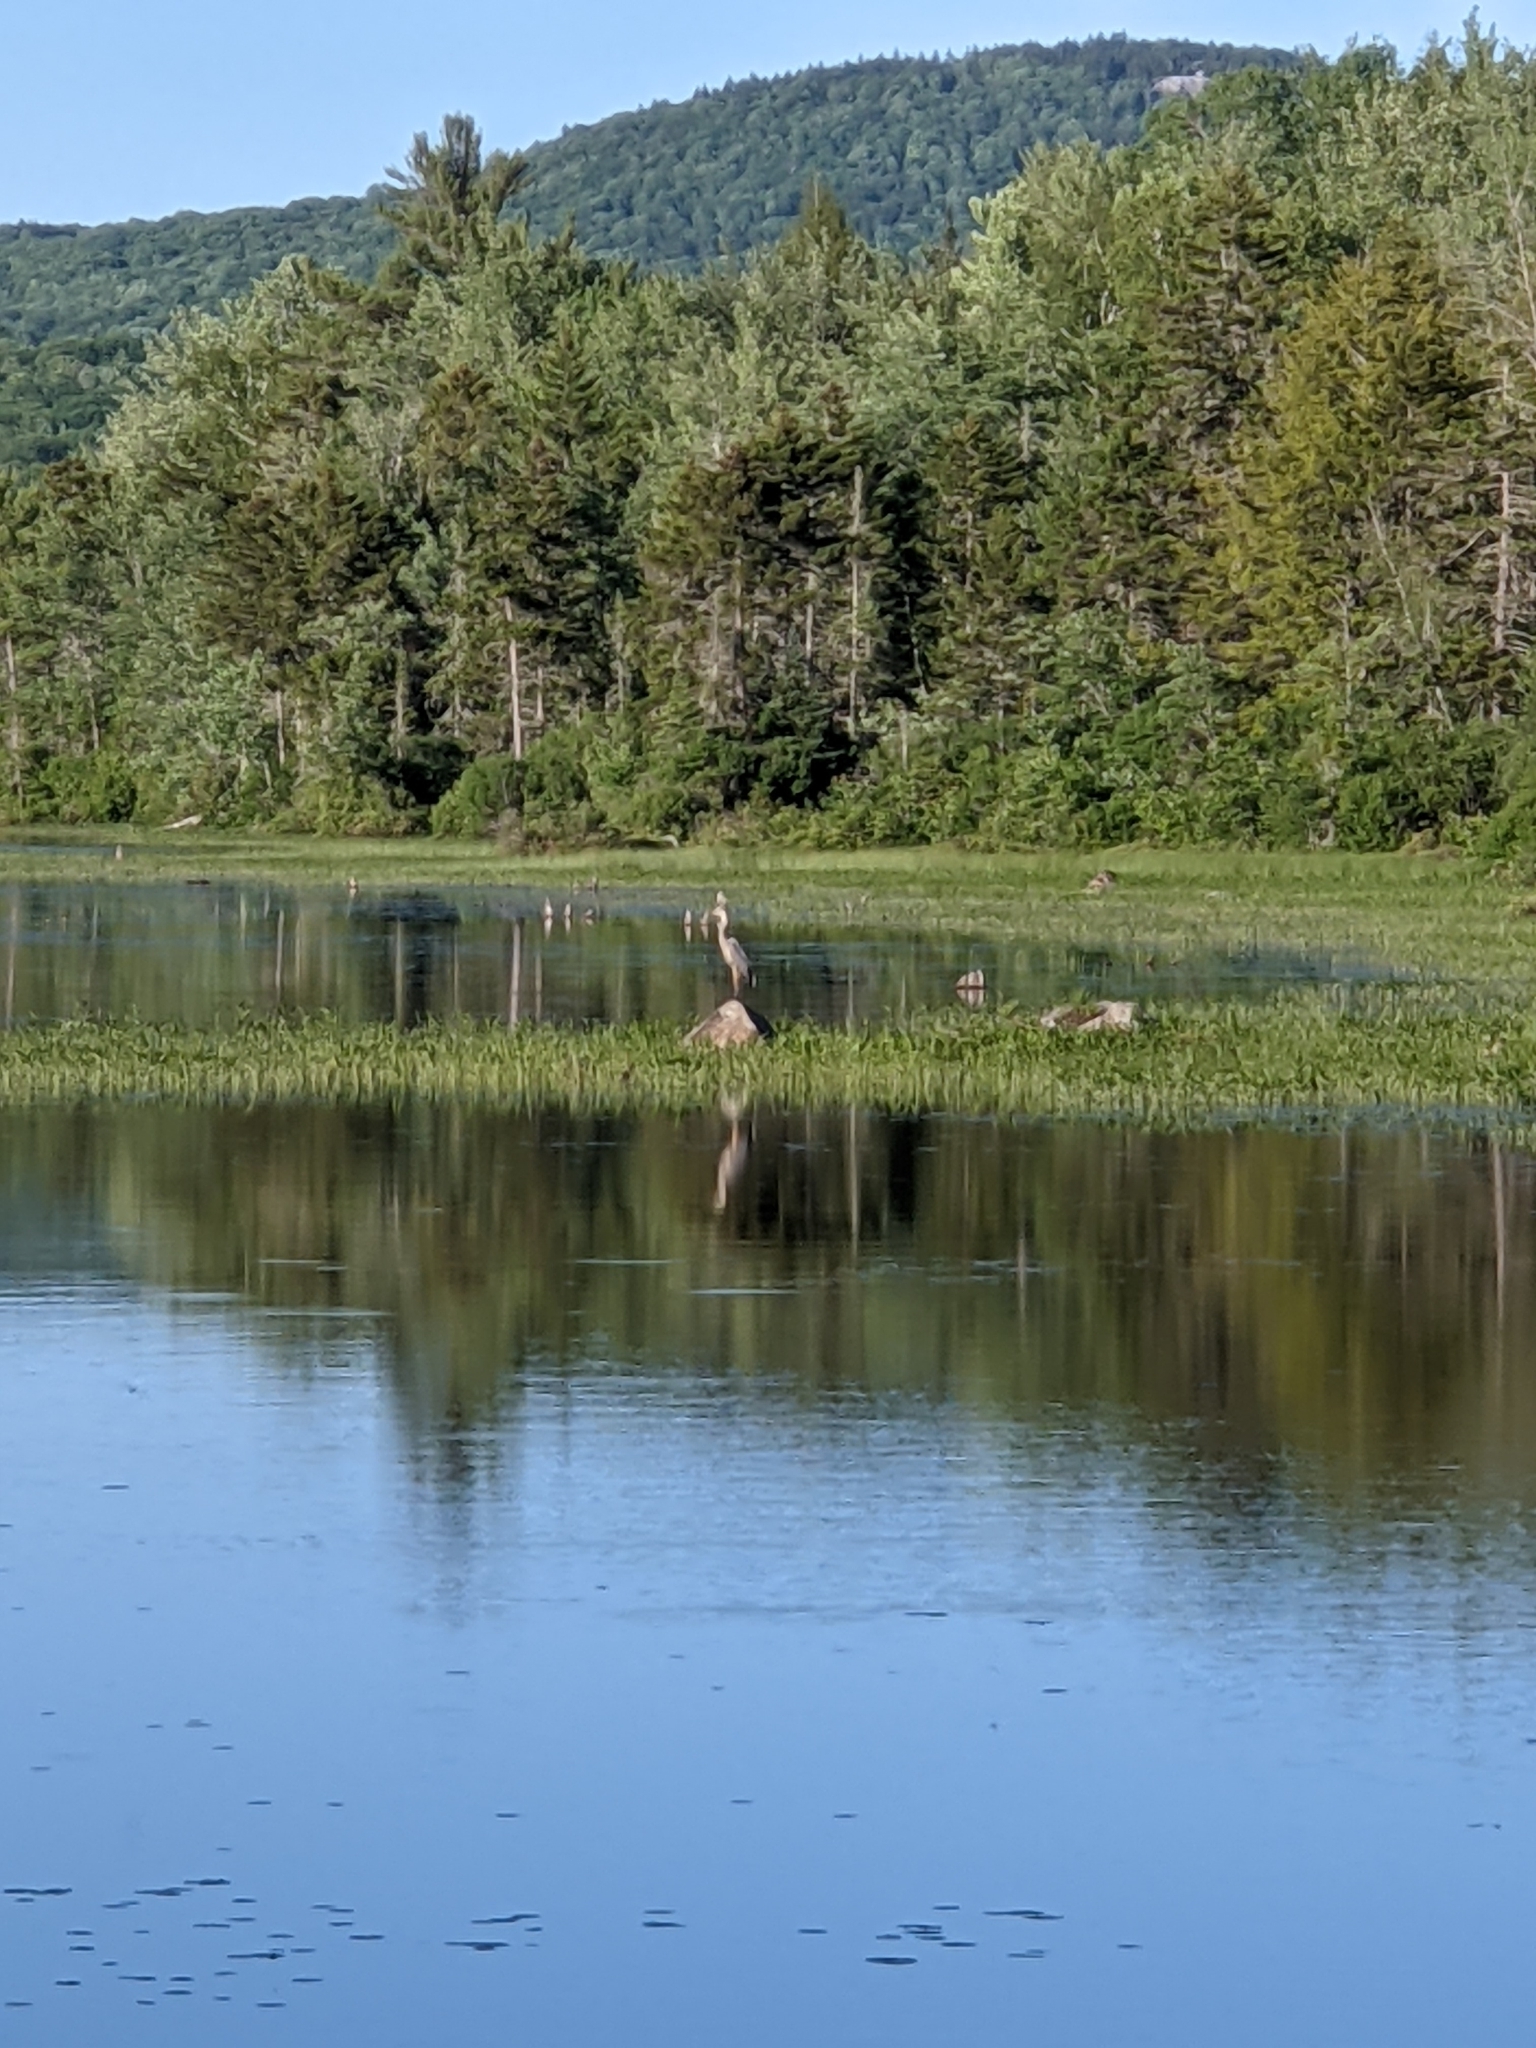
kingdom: Animalia
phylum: Chordata
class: Aves
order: Pelecaniformes
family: Ardeidae
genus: Ardea
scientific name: Ardea herodias
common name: Great blue heron
